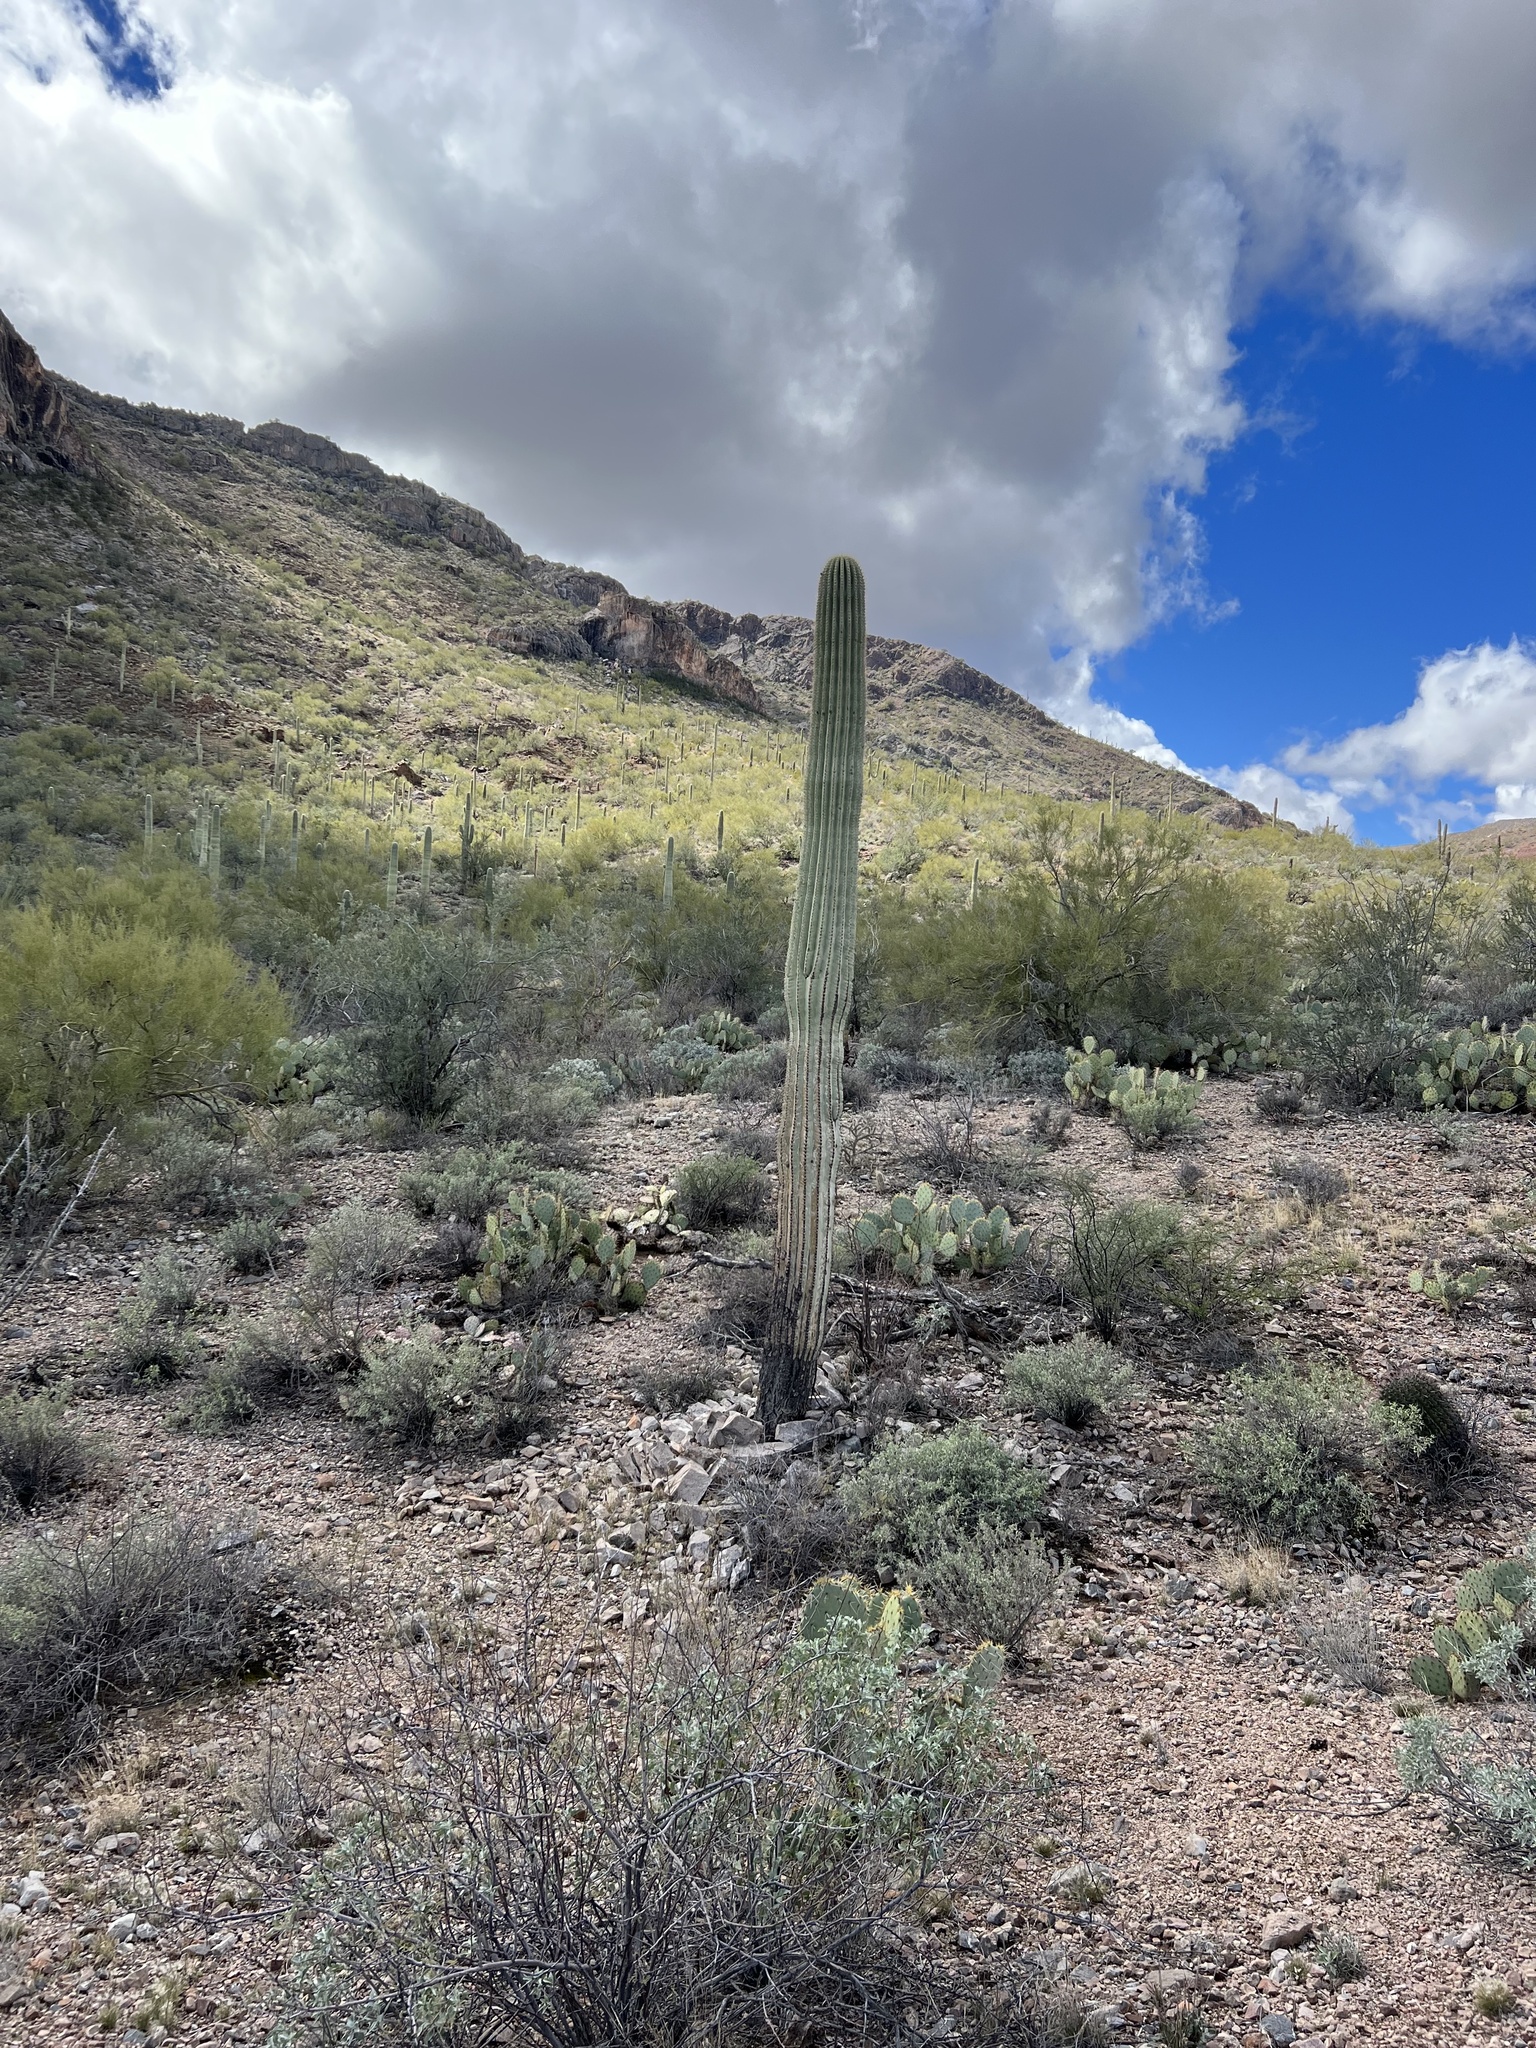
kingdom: Plantae
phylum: Tracheophyta
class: Magnoliopsida
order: Caryophyllales
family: Cactaceae
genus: Carnegiea
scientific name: Carnegiea gigantea
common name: Saguaro
